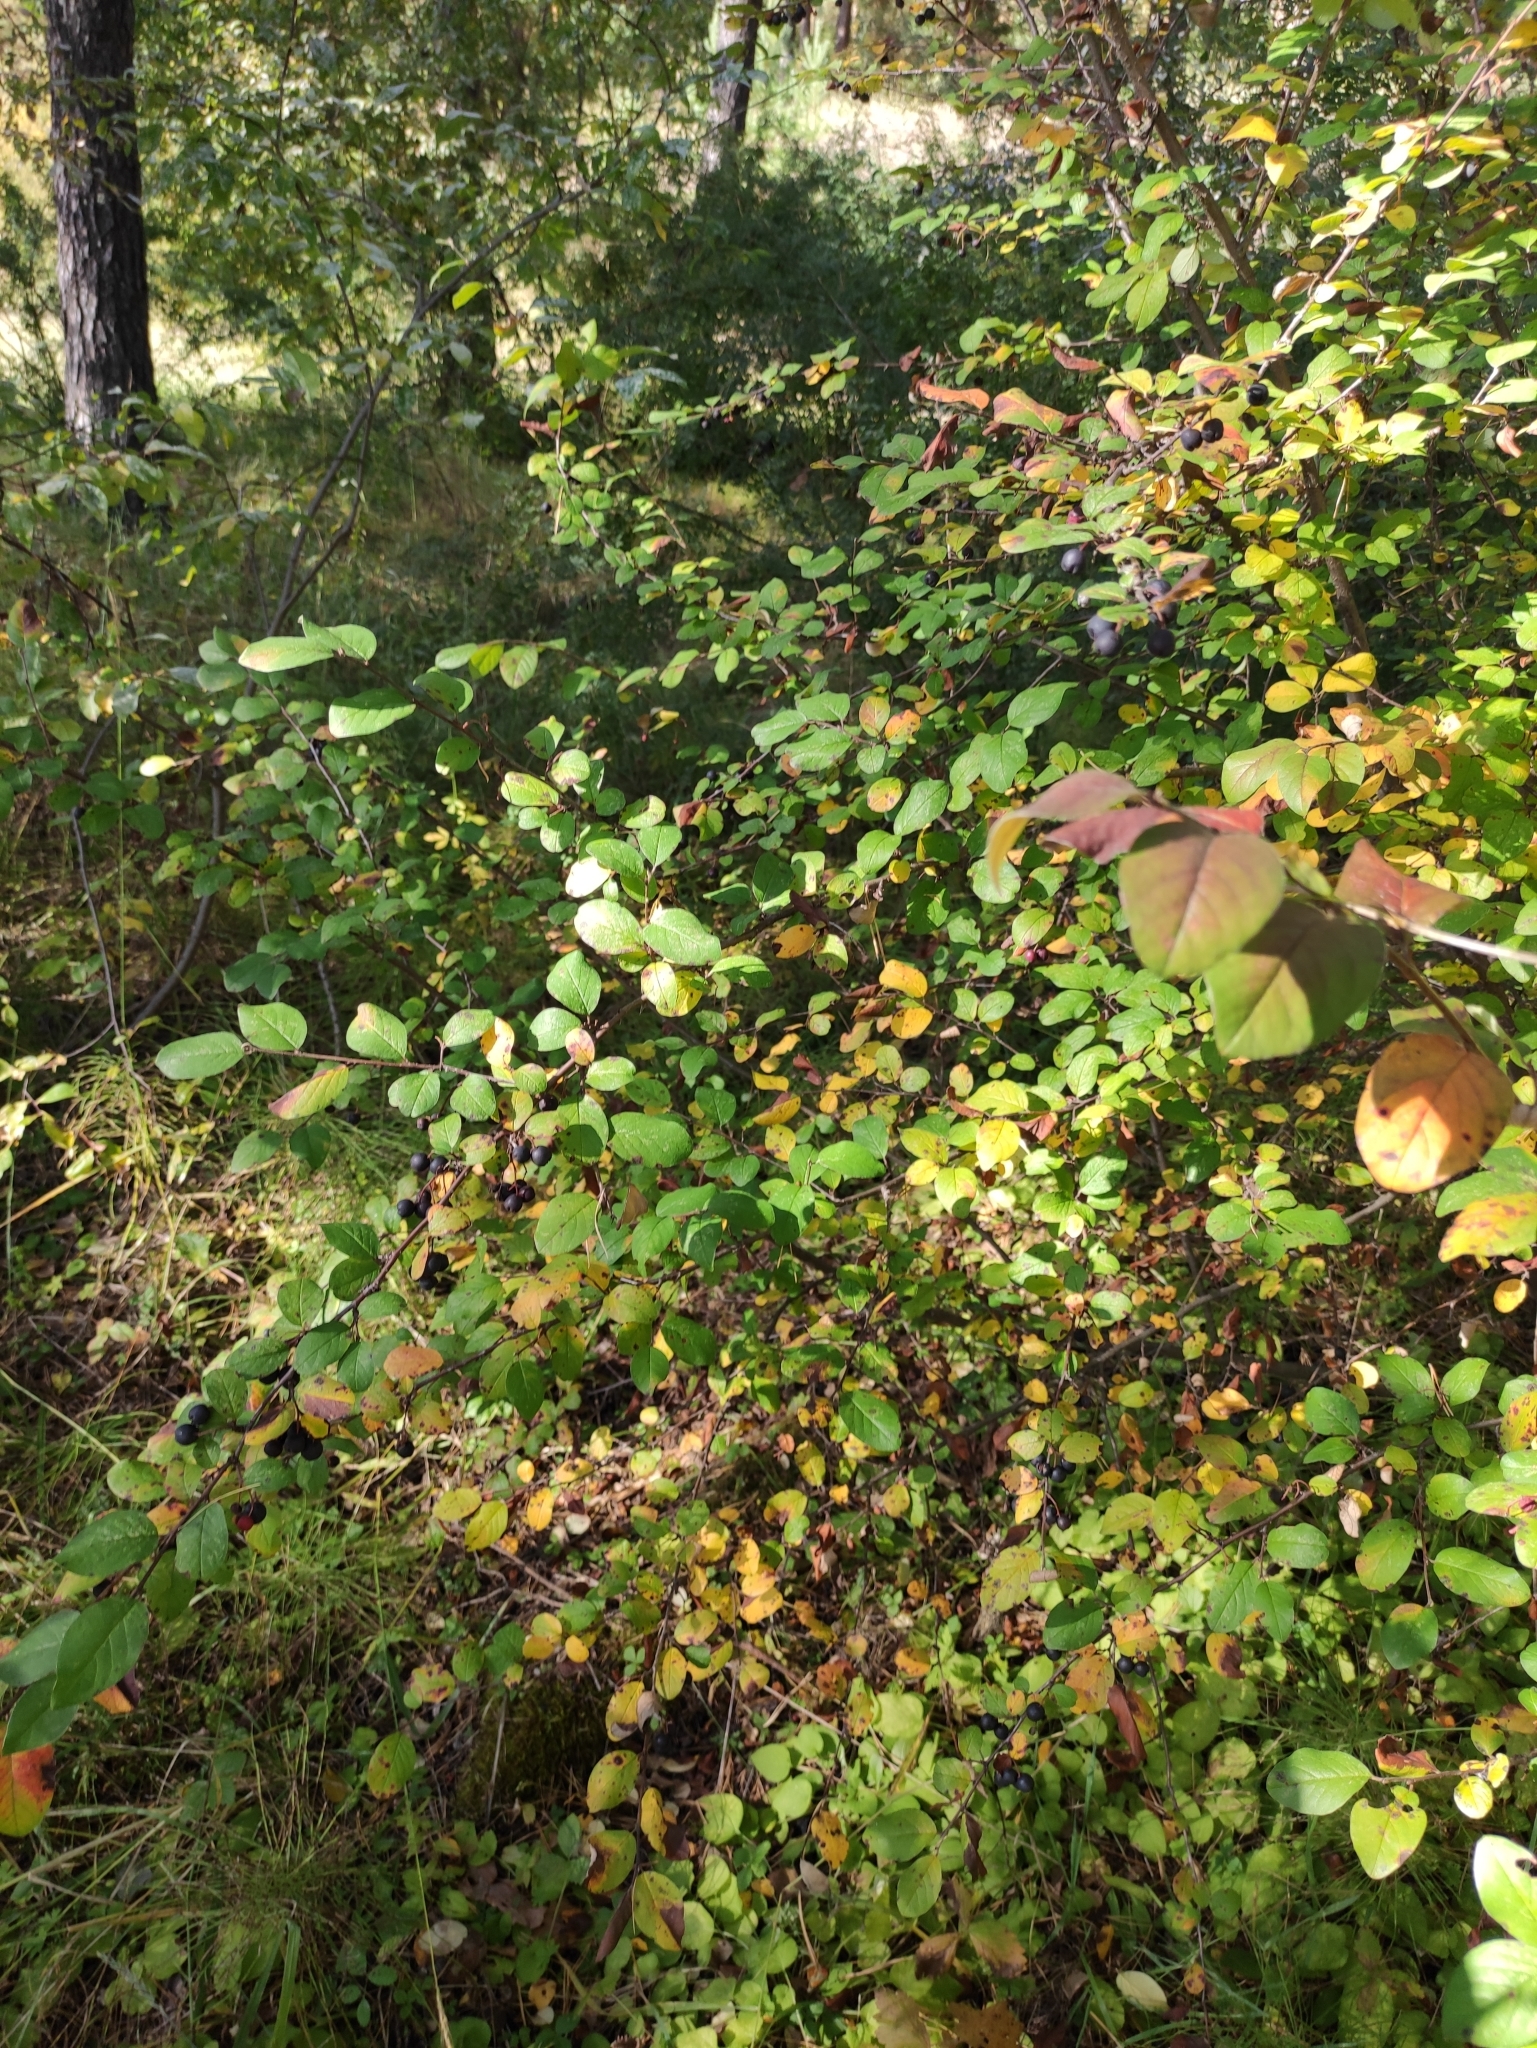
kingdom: Plantae
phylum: Tracheophyta
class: Magnoliopsida
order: Rosales
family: Rosaceae
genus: Cotoneaster
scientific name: Cotoneaster melanocarpus
